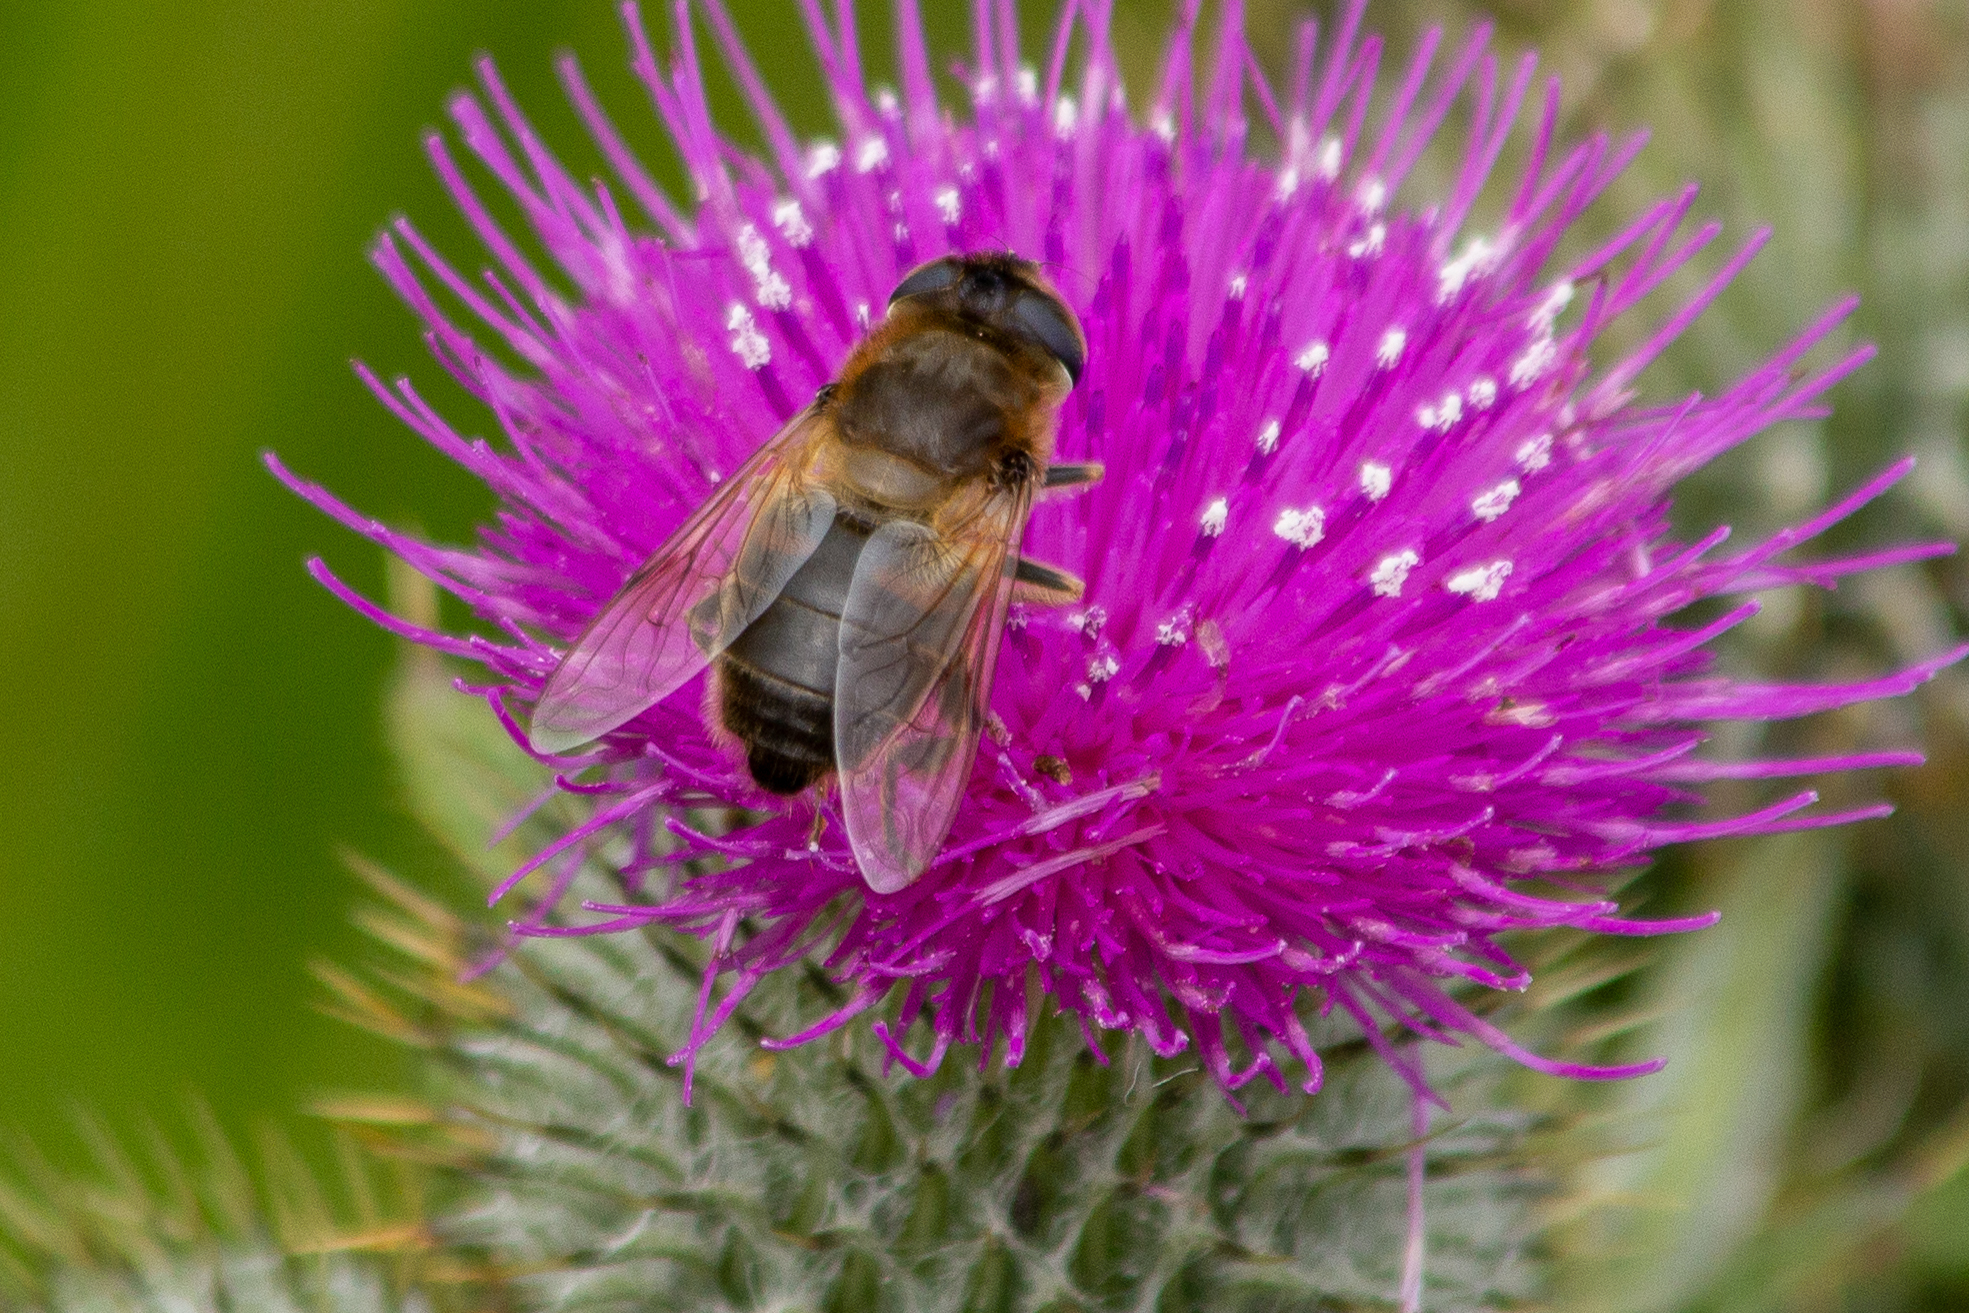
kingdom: Animalia
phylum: Arthropoda
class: Insecta
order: Diptera
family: Syrphidae
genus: Eristalis
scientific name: Eristalis tenax
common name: Drone fly
